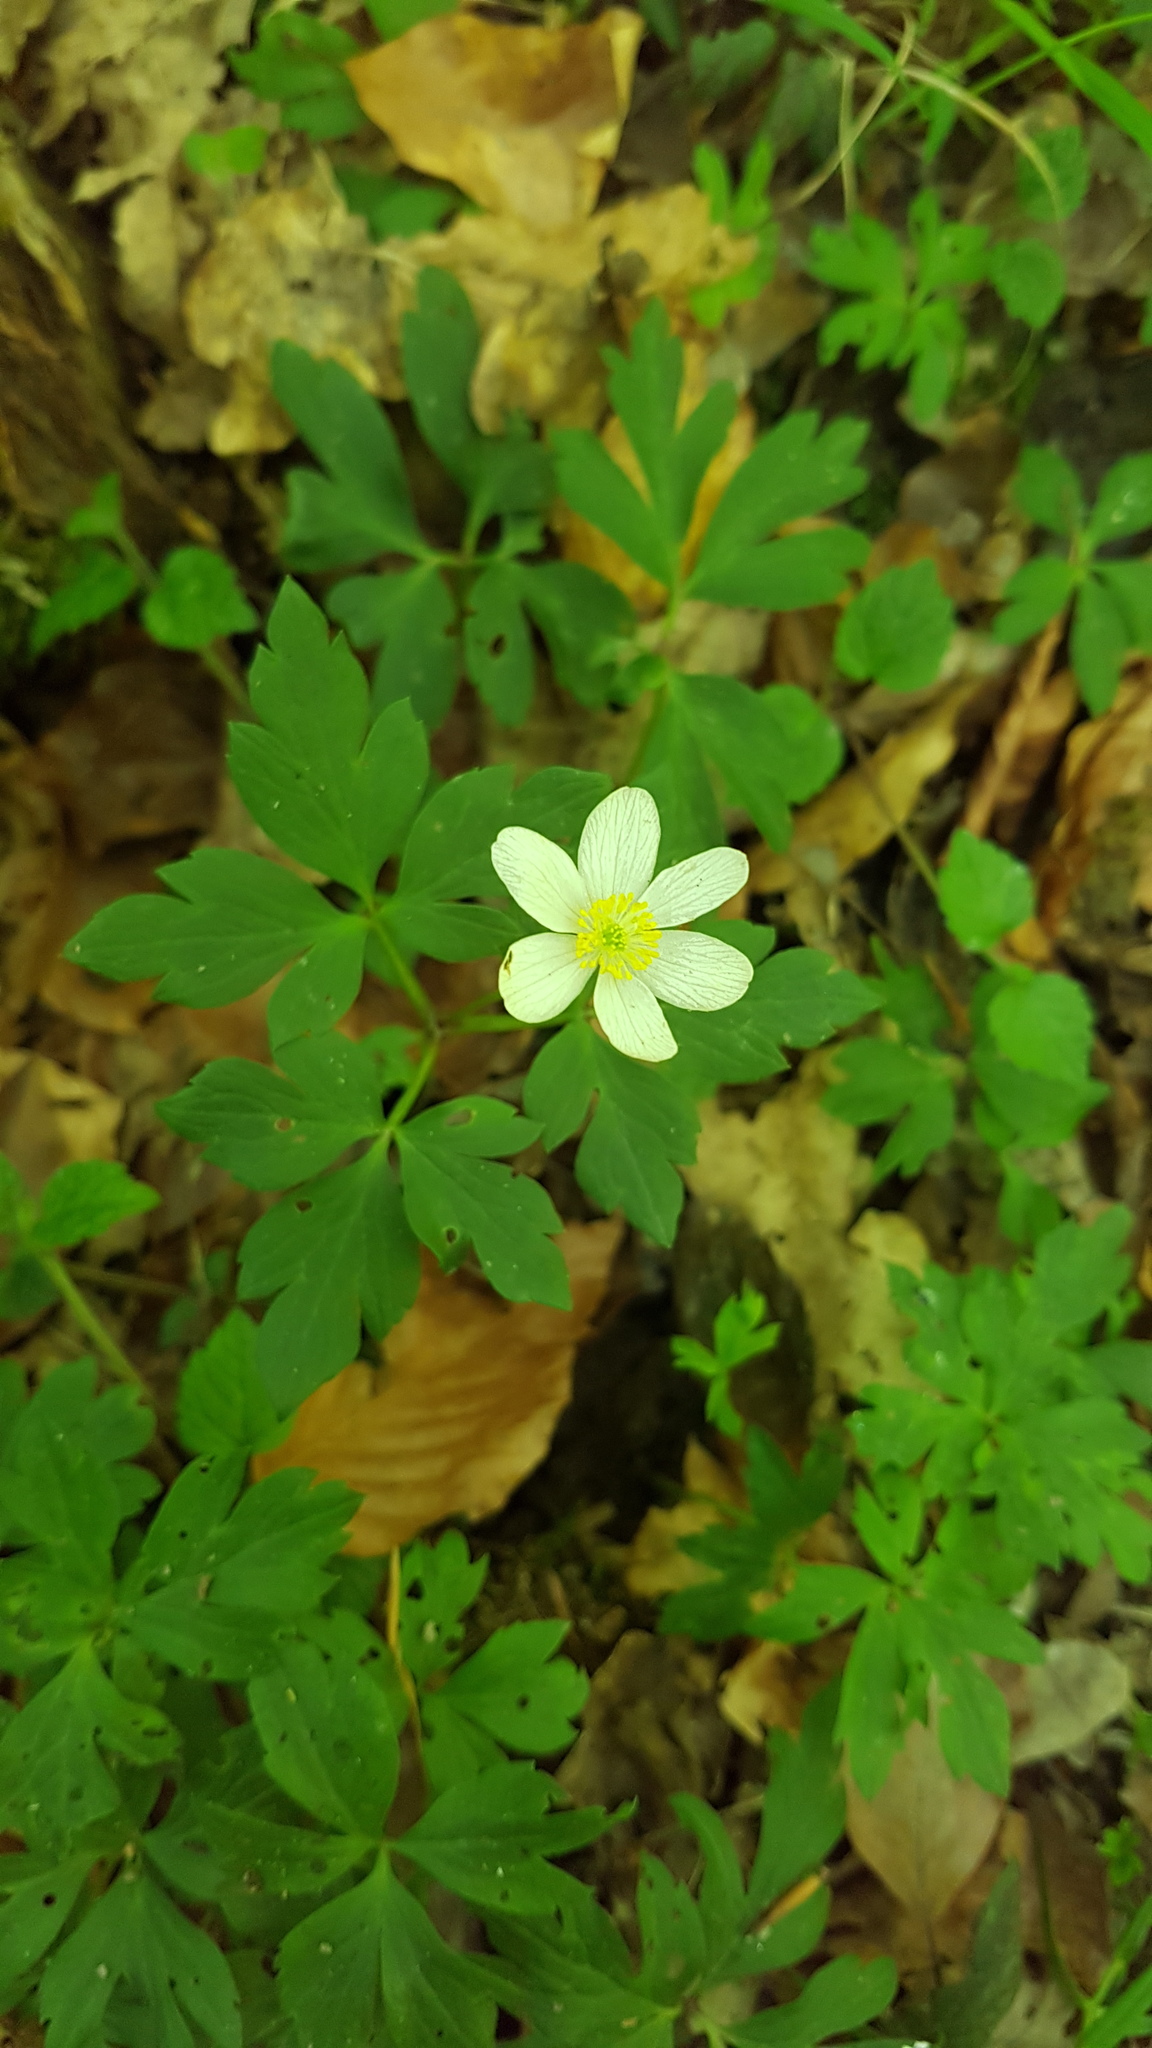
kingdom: Plantae
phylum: Tracheophyta
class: Magnoliopsida
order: Ranunculales
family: Ranunculaceae
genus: Anemone
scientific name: Anemone nemorosa
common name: Wood anemone
